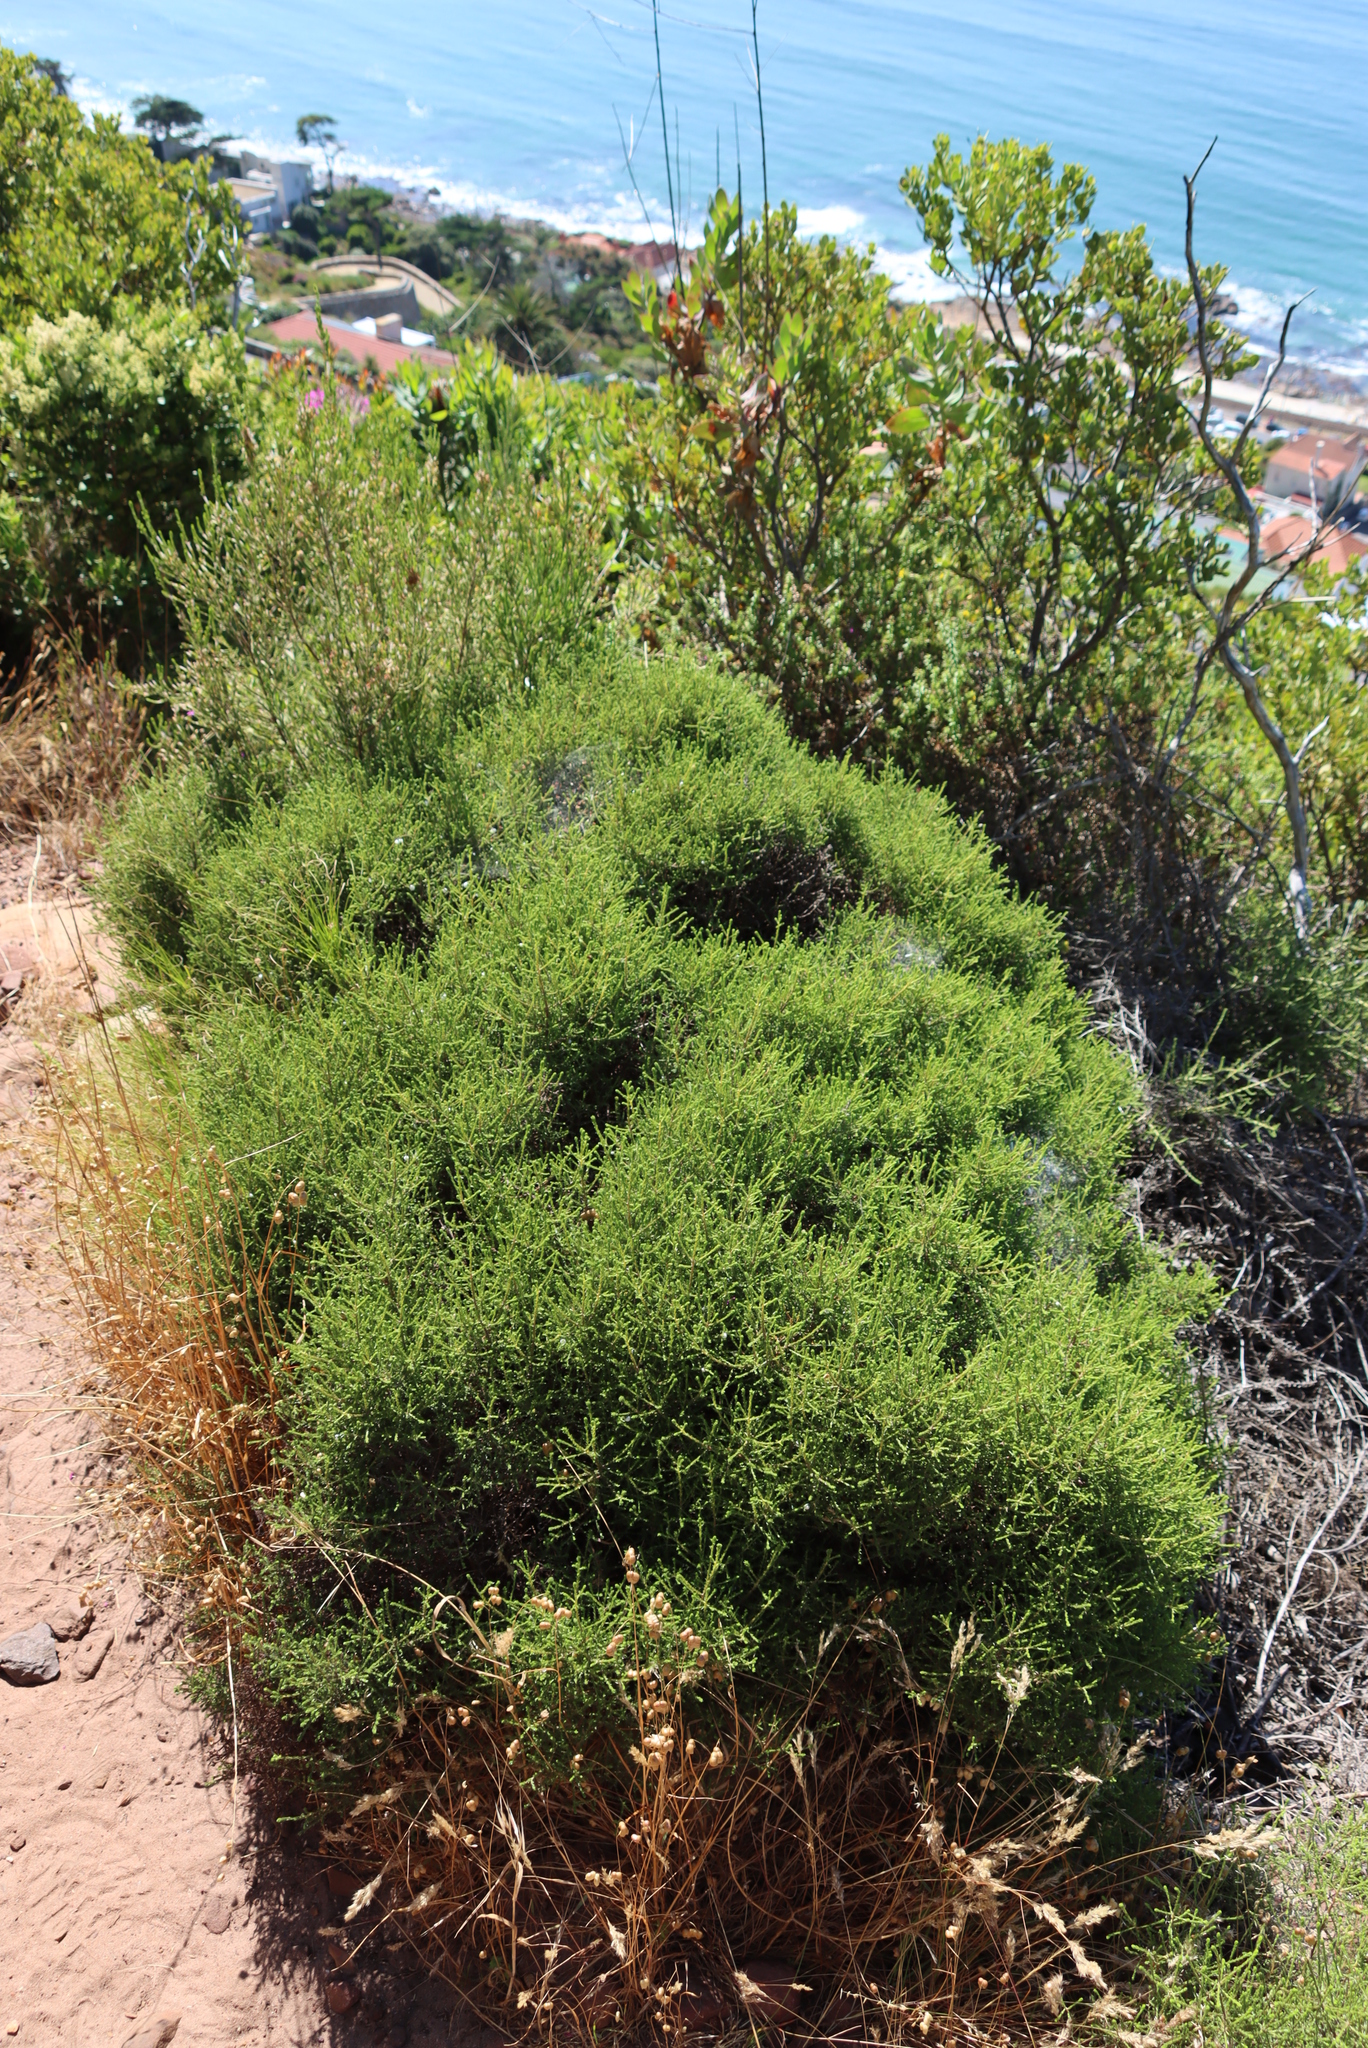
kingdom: Plantae
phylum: Tracheophyta
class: Magnoliopsida
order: Asterales
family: Asteraceae
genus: Myrovernix
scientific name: Myrovernix scaber
